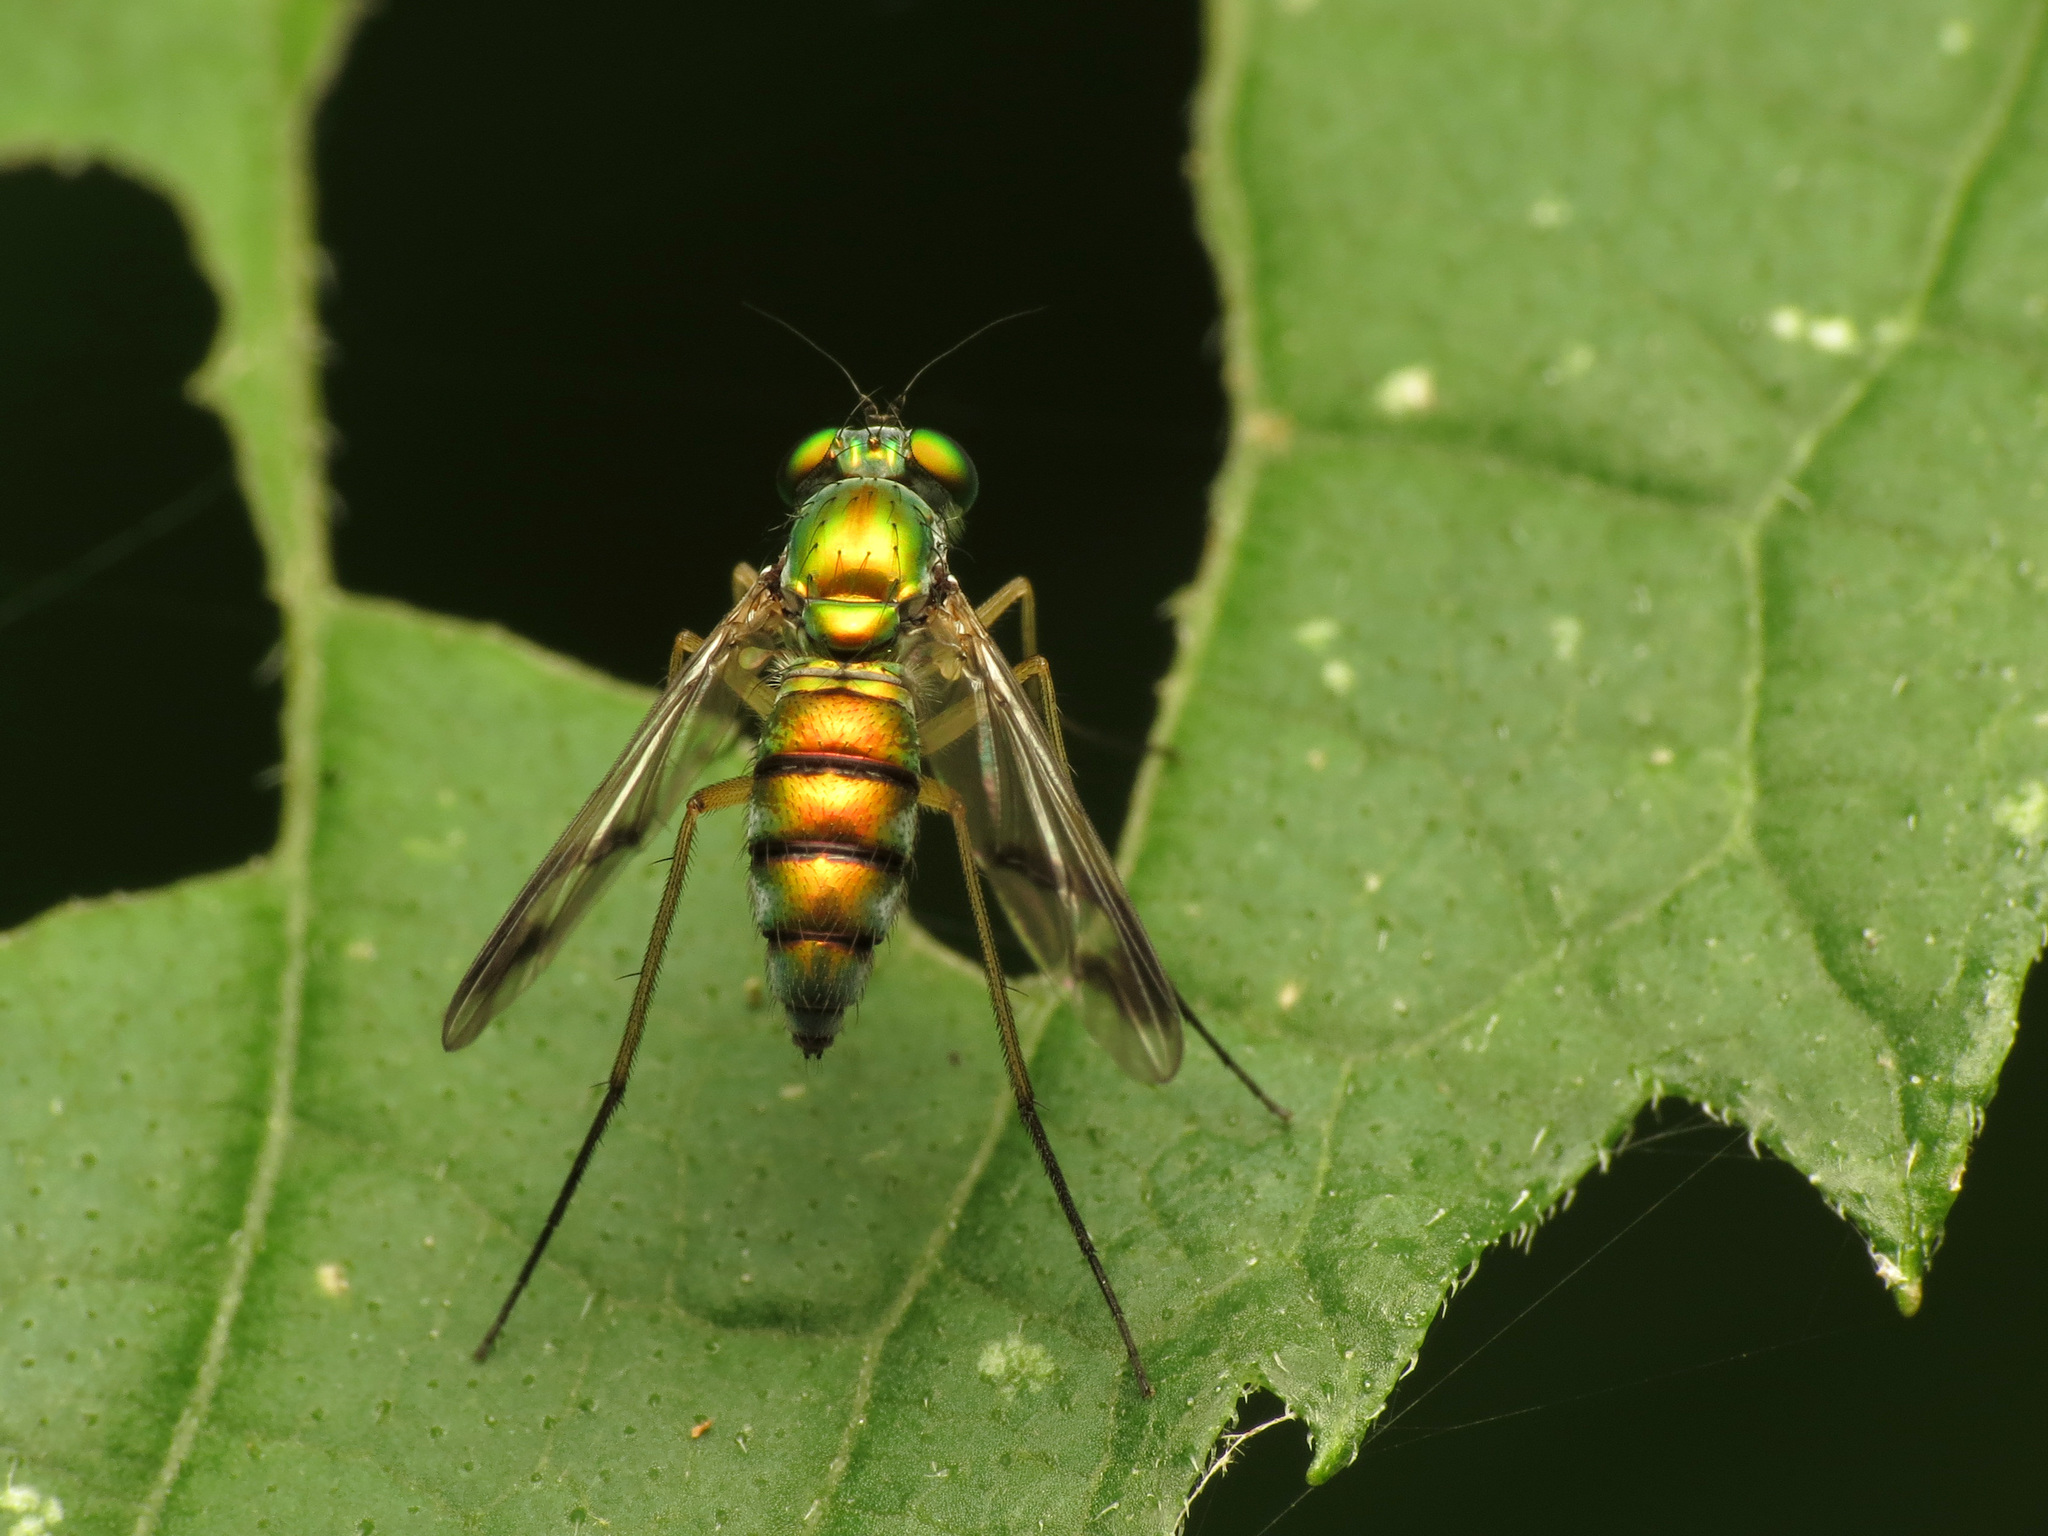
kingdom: Animalia
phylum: Arthropoda
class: Insecta
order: Diptera
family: Dolichopodidae
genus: Condylostylus
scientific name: Condylostylus
